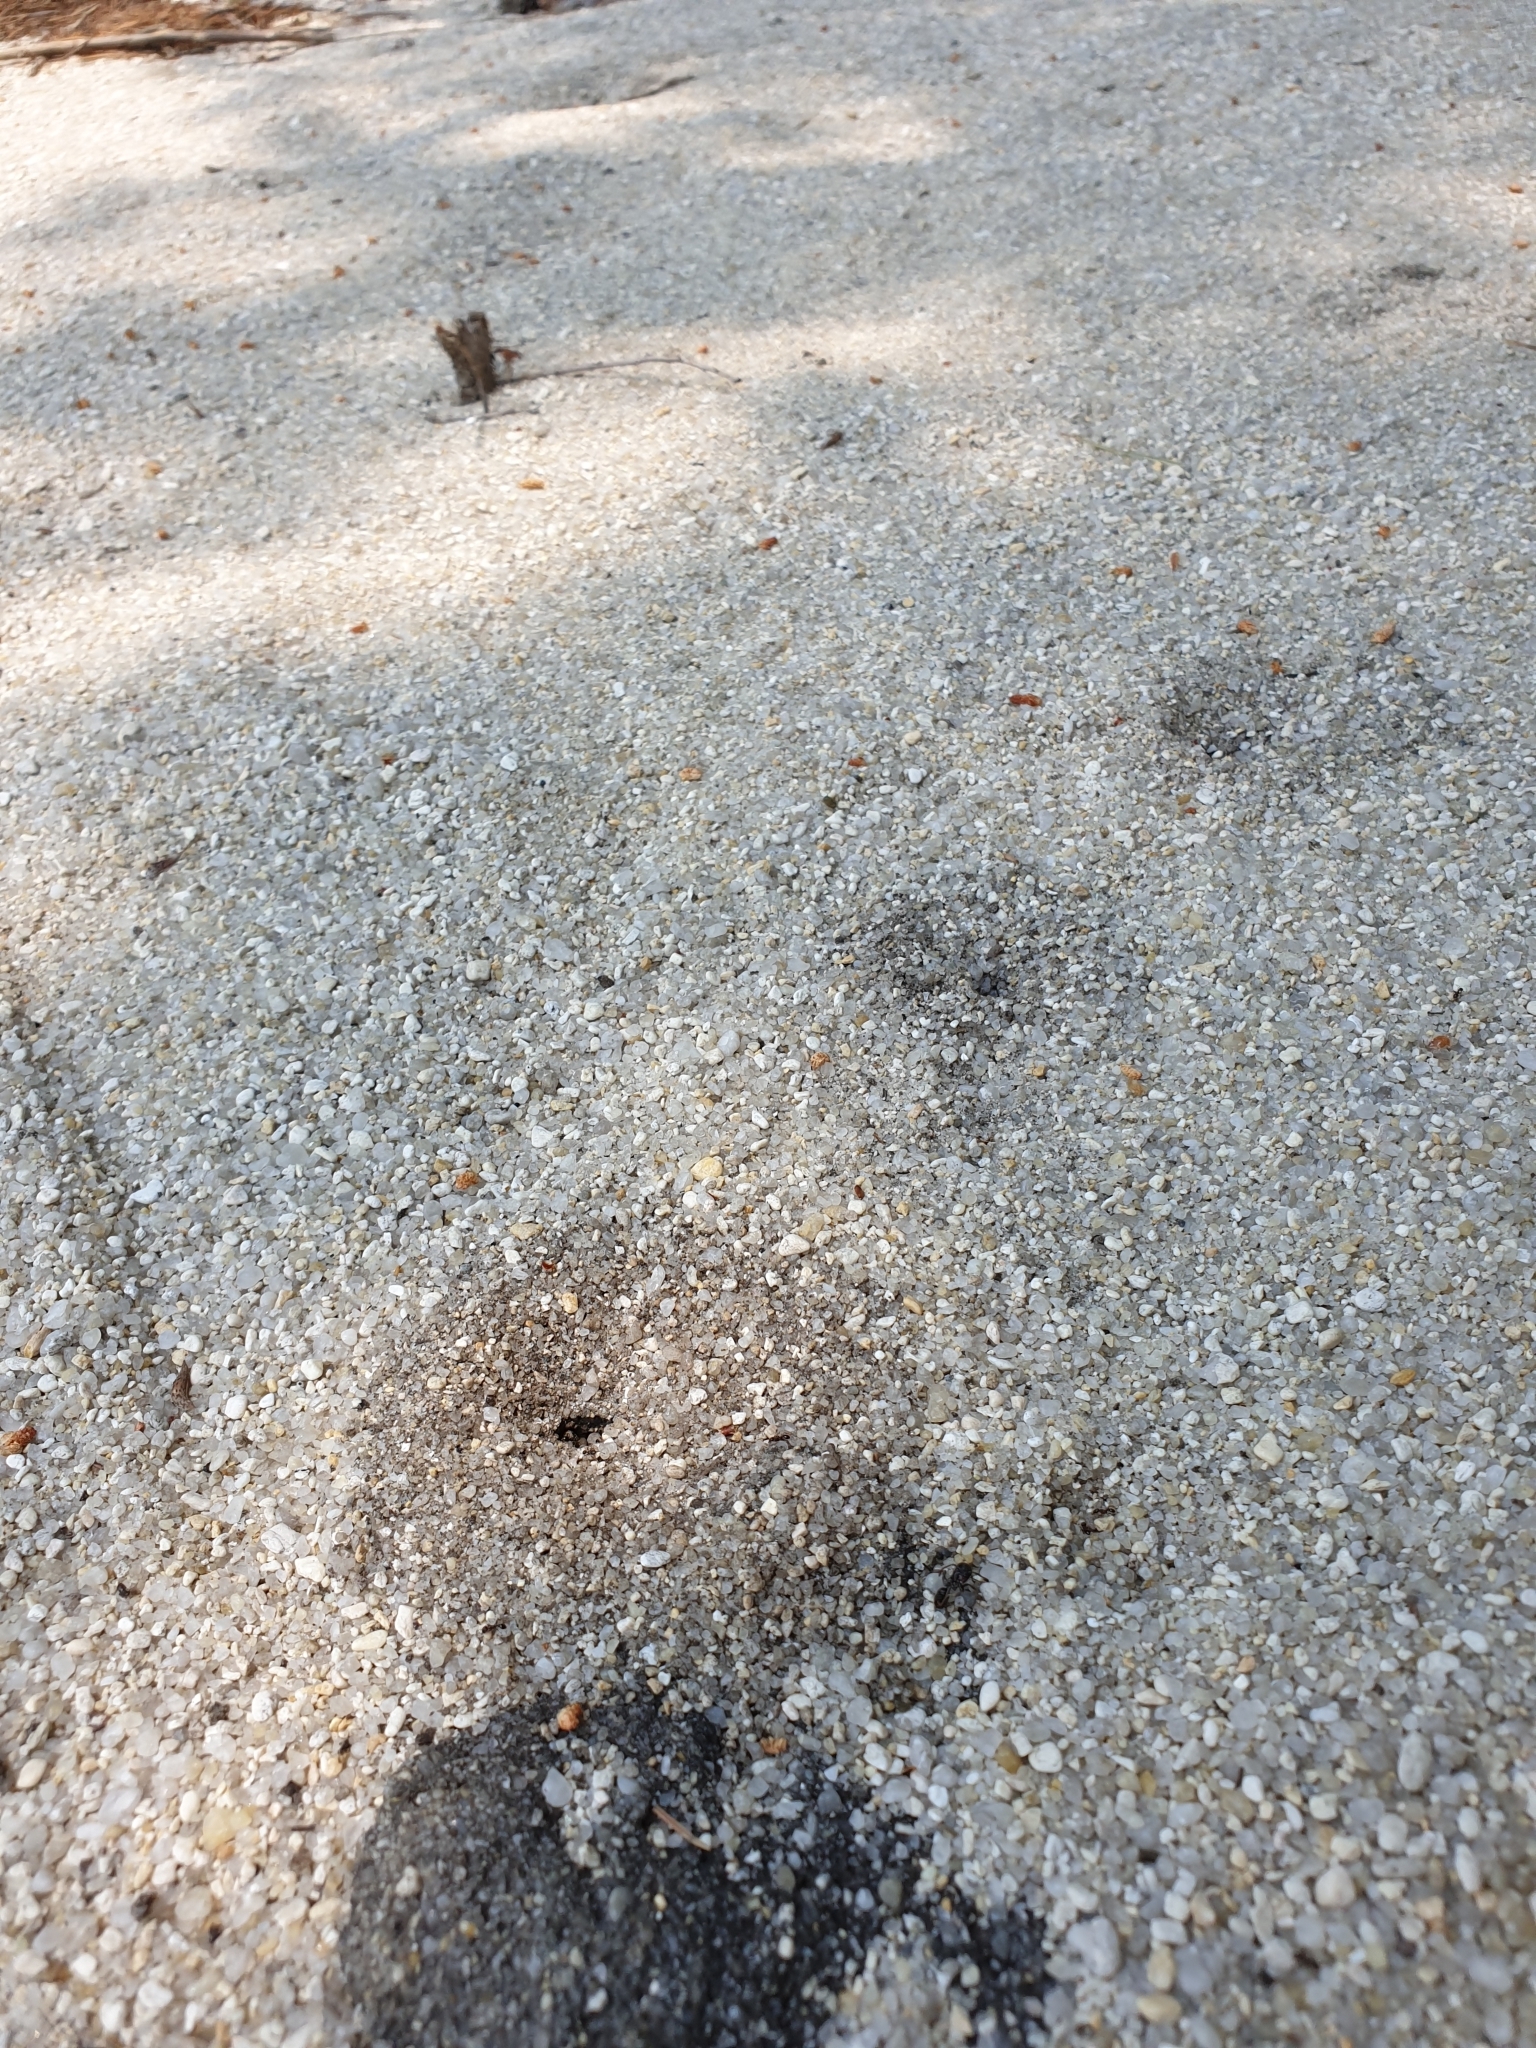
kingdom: Animalia
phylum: Arthropoda
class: Insecta
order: Hymenoptera
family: Formicidae
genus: Tetramorium
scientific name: Tetramorium tsushimae
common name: Ant
